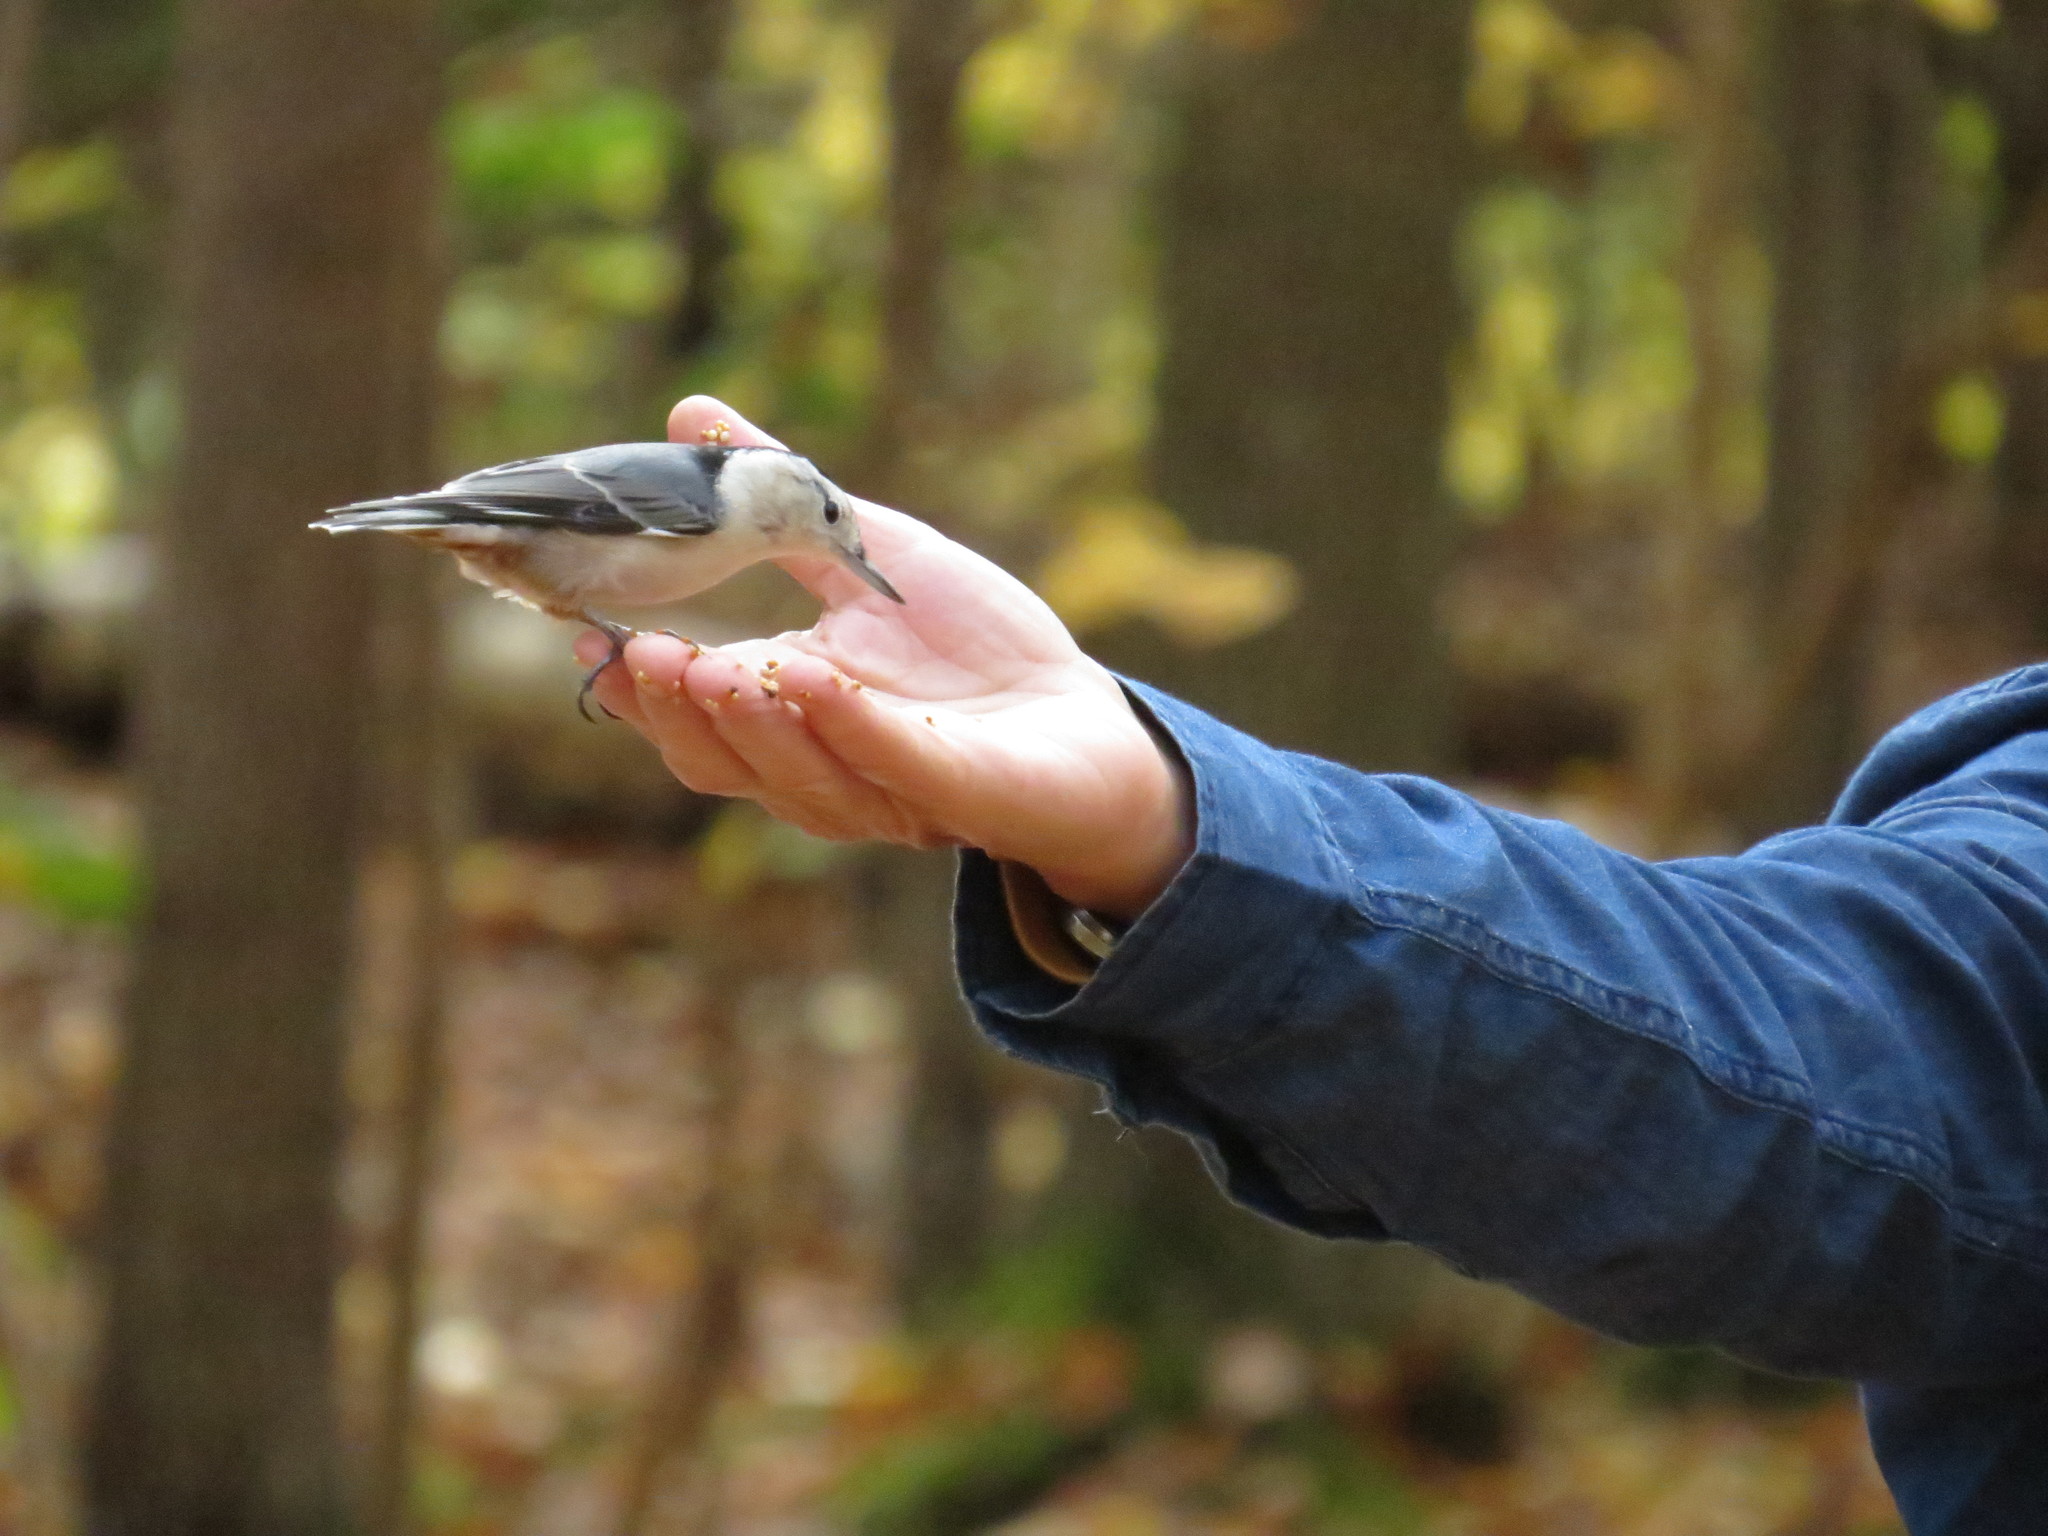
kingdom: Animalia
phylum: Chordata
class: Aves
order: Passeriformes
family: Sittidae
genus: Sitta
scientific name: Sitta carolinensis
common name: White-breasted nuthatch
